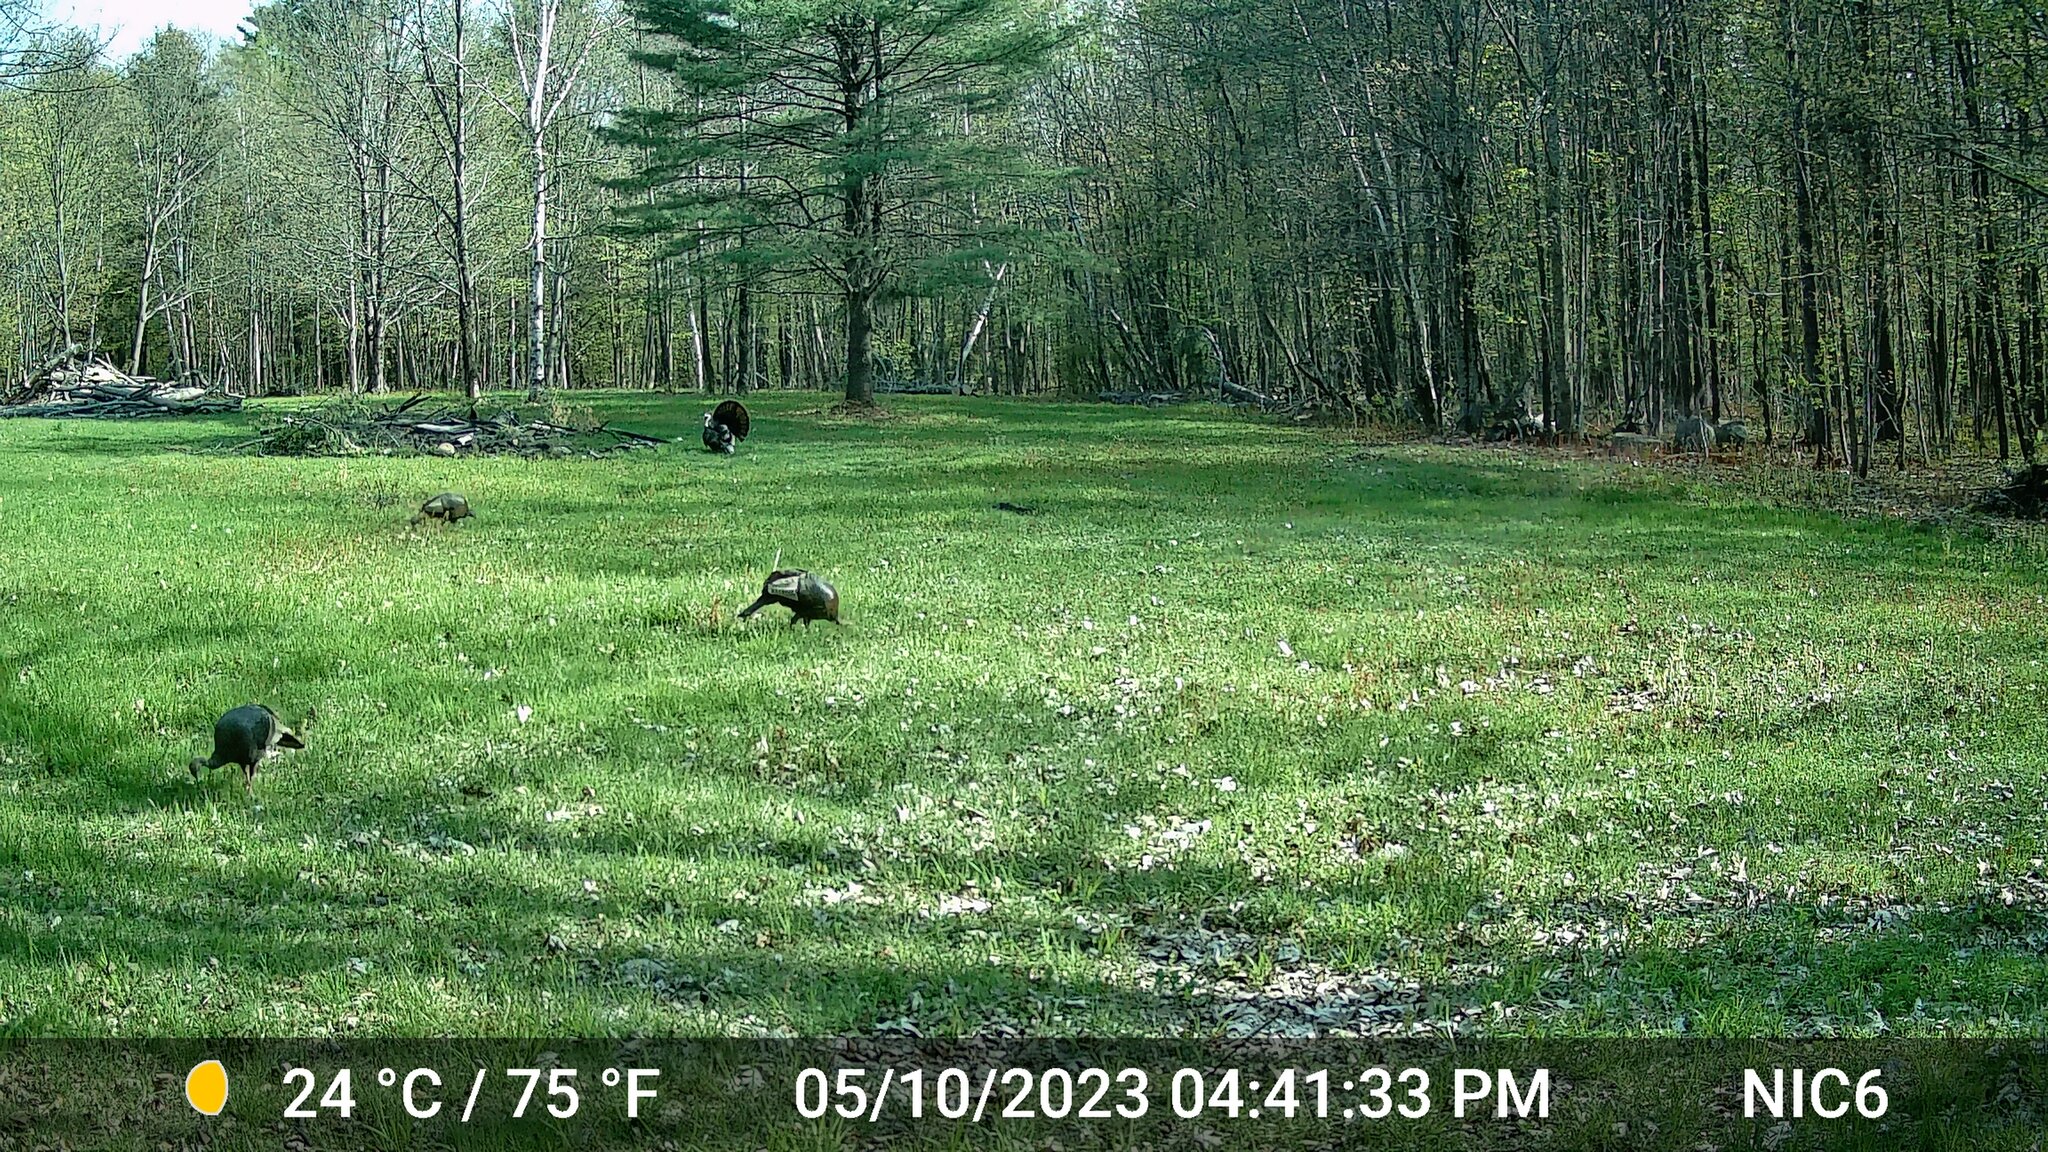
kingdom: Animalia
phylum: Chordata
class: Aves
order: Galliformes
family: Phasianidae
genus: Meleagris
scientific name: Meleagris gallopavo
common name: Wild turkey
